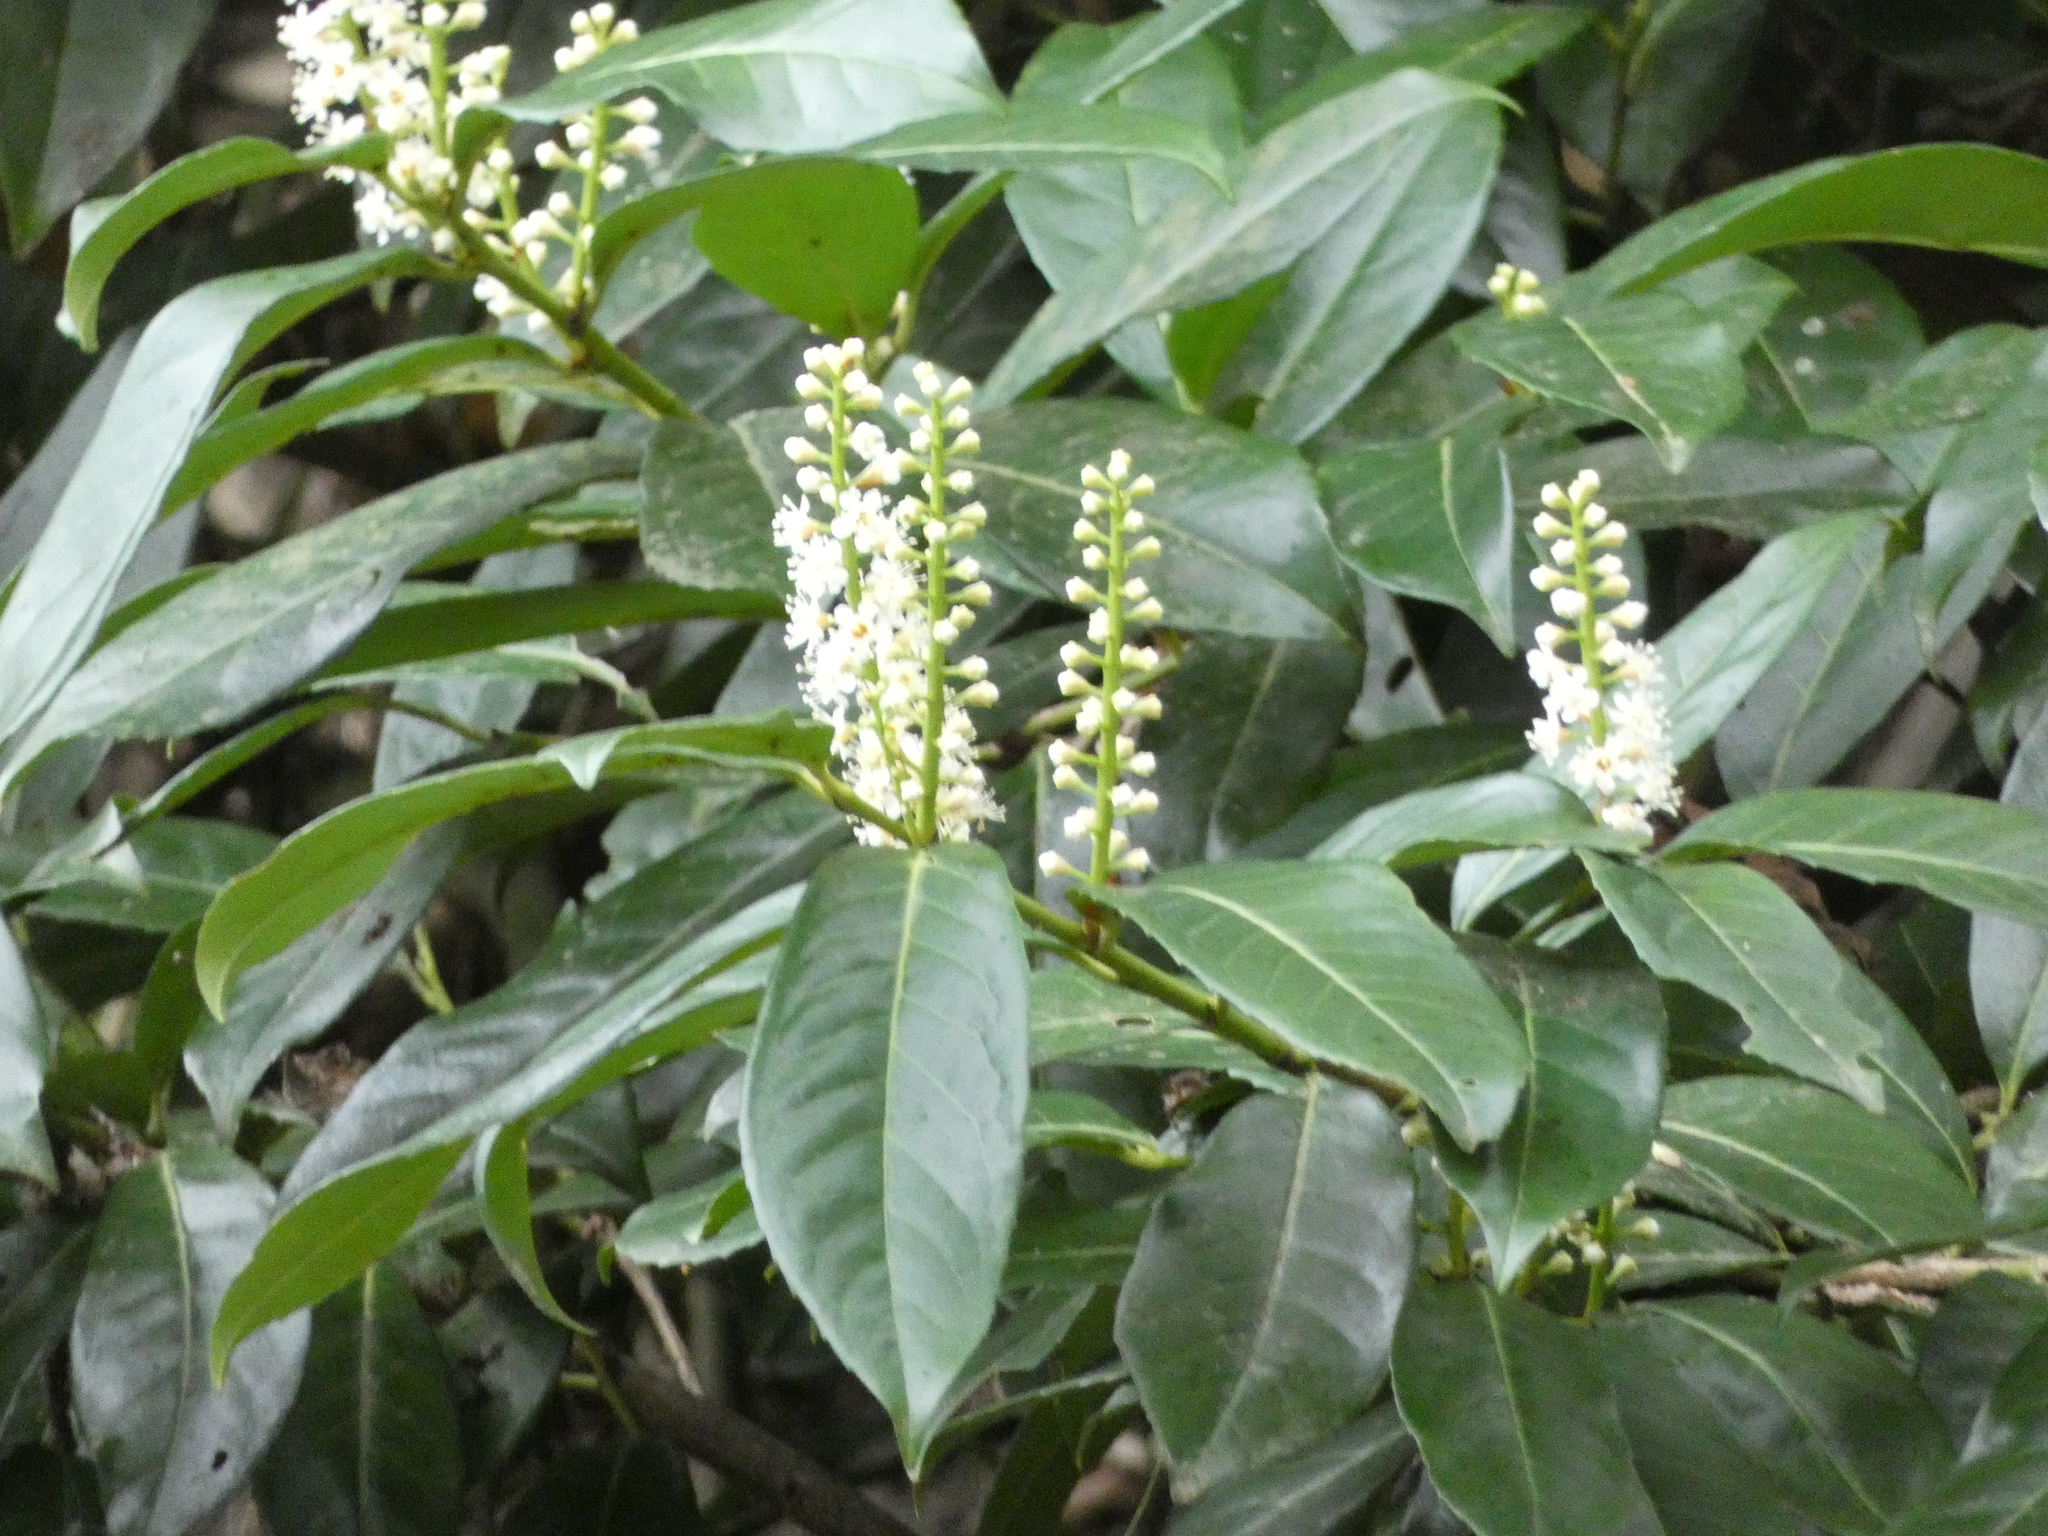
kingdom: Plantae
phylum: Tracheophyta
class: Magnoliopsida
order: Rosales
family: Rosaceae
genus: Prunus
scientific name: Prunus laurocerasus
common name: Cherry laurel
